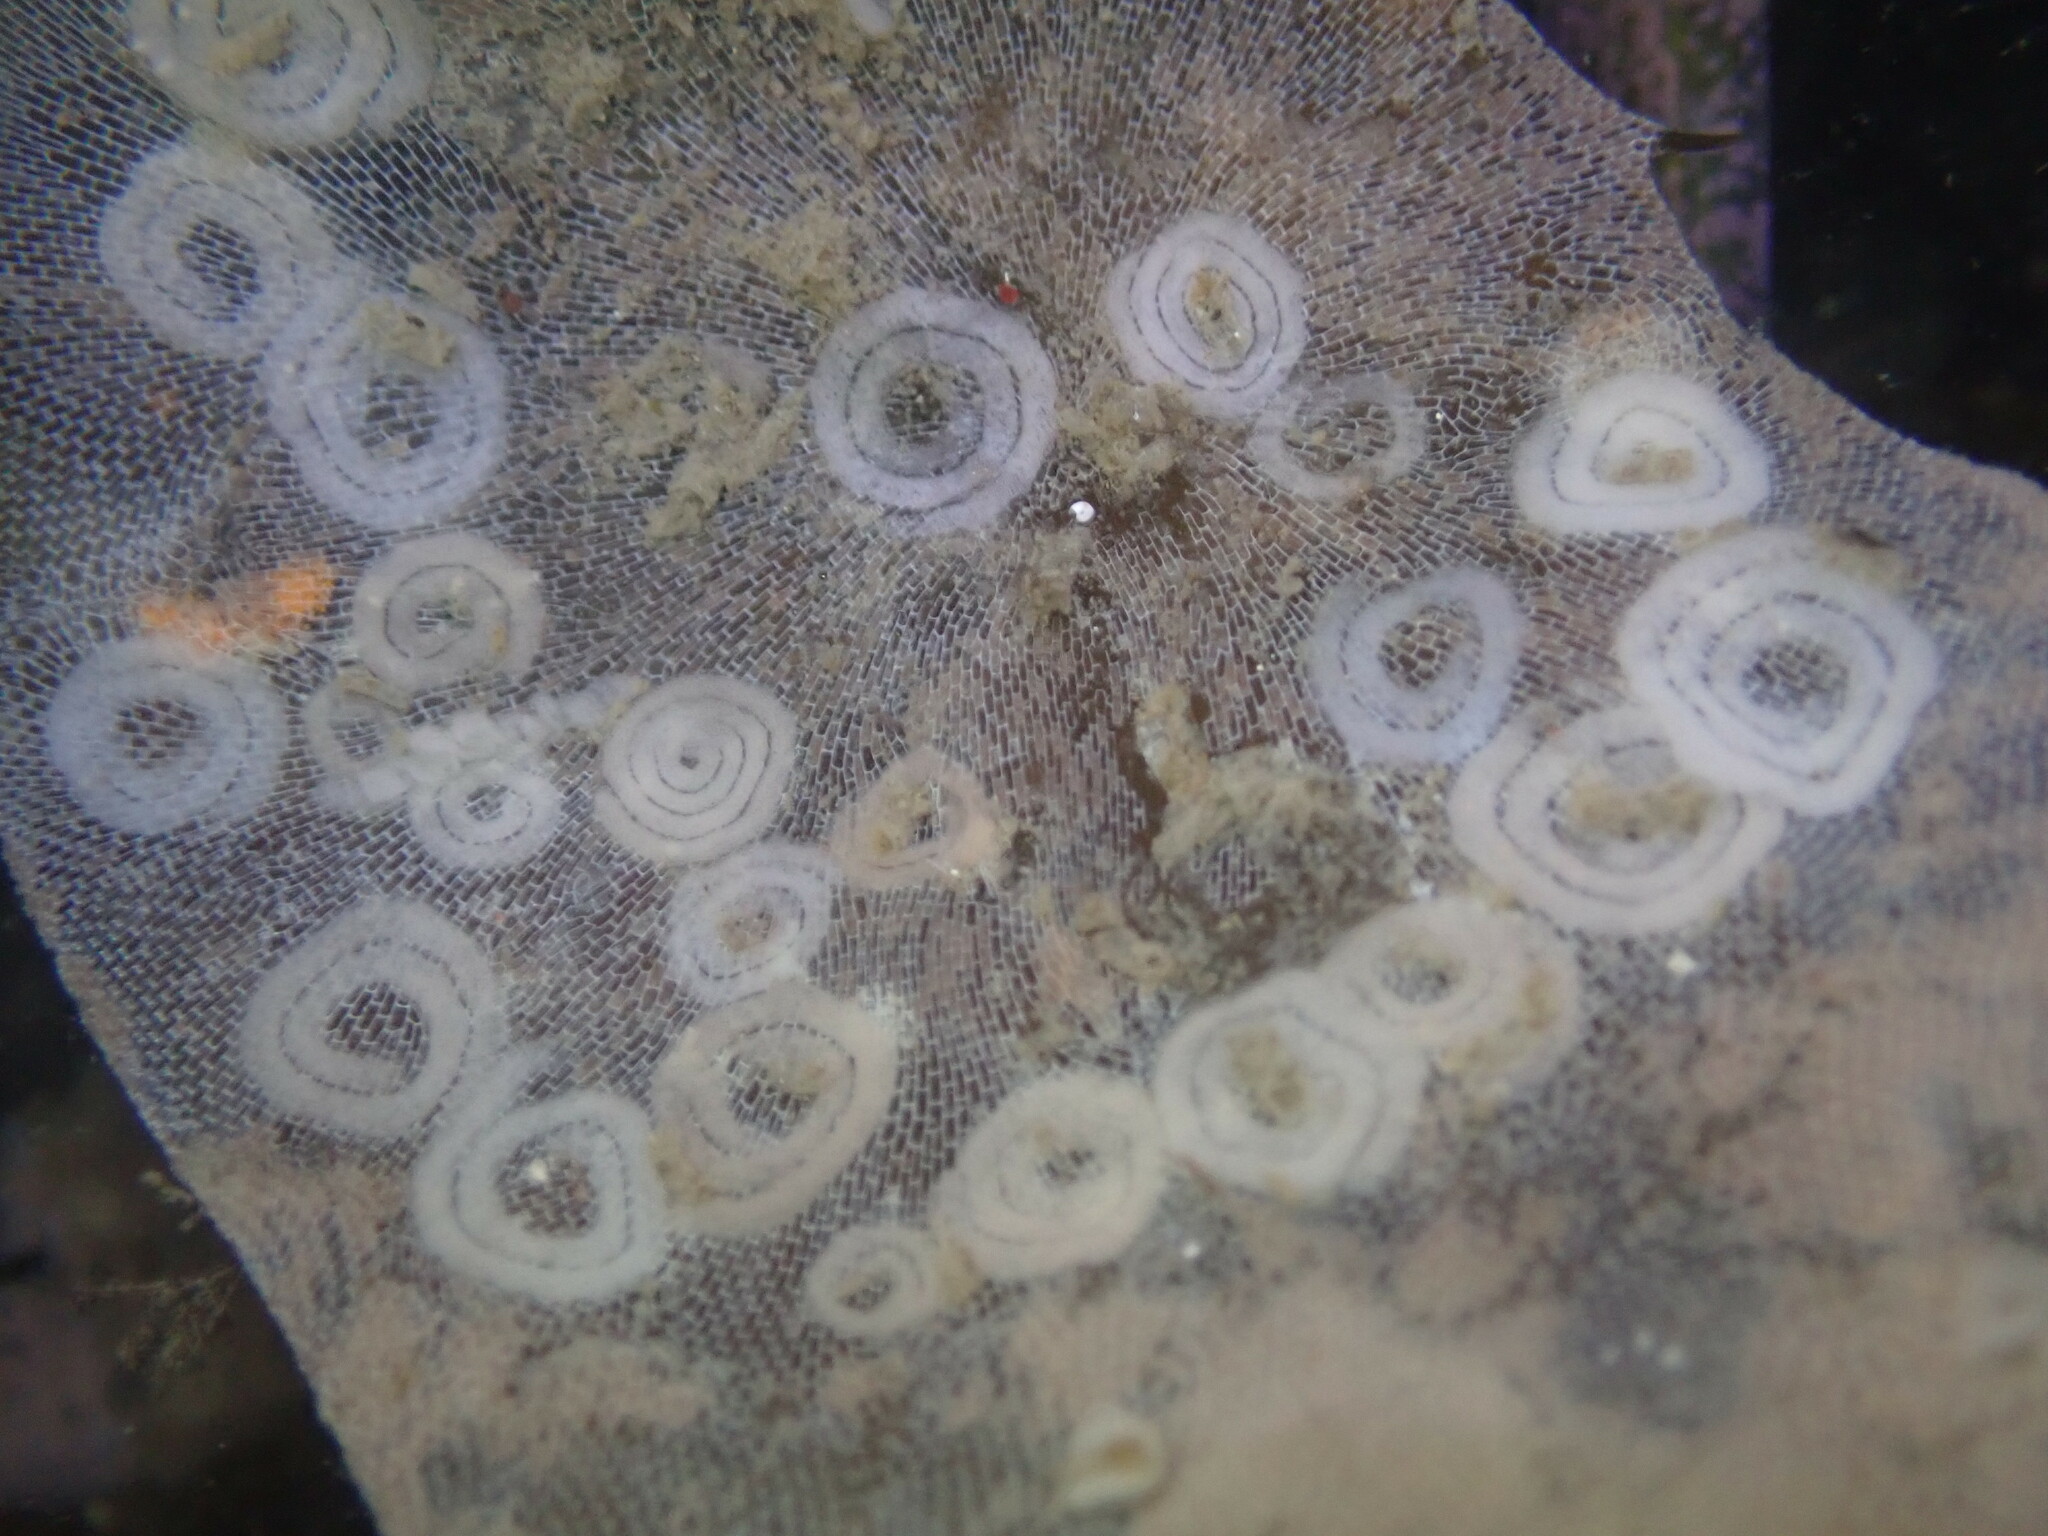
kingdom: Animalia
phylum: Mollusca
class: Gastropoda
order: Nudibranchia
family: Corambidae
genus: Corambe
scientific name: Corambe pacifica
